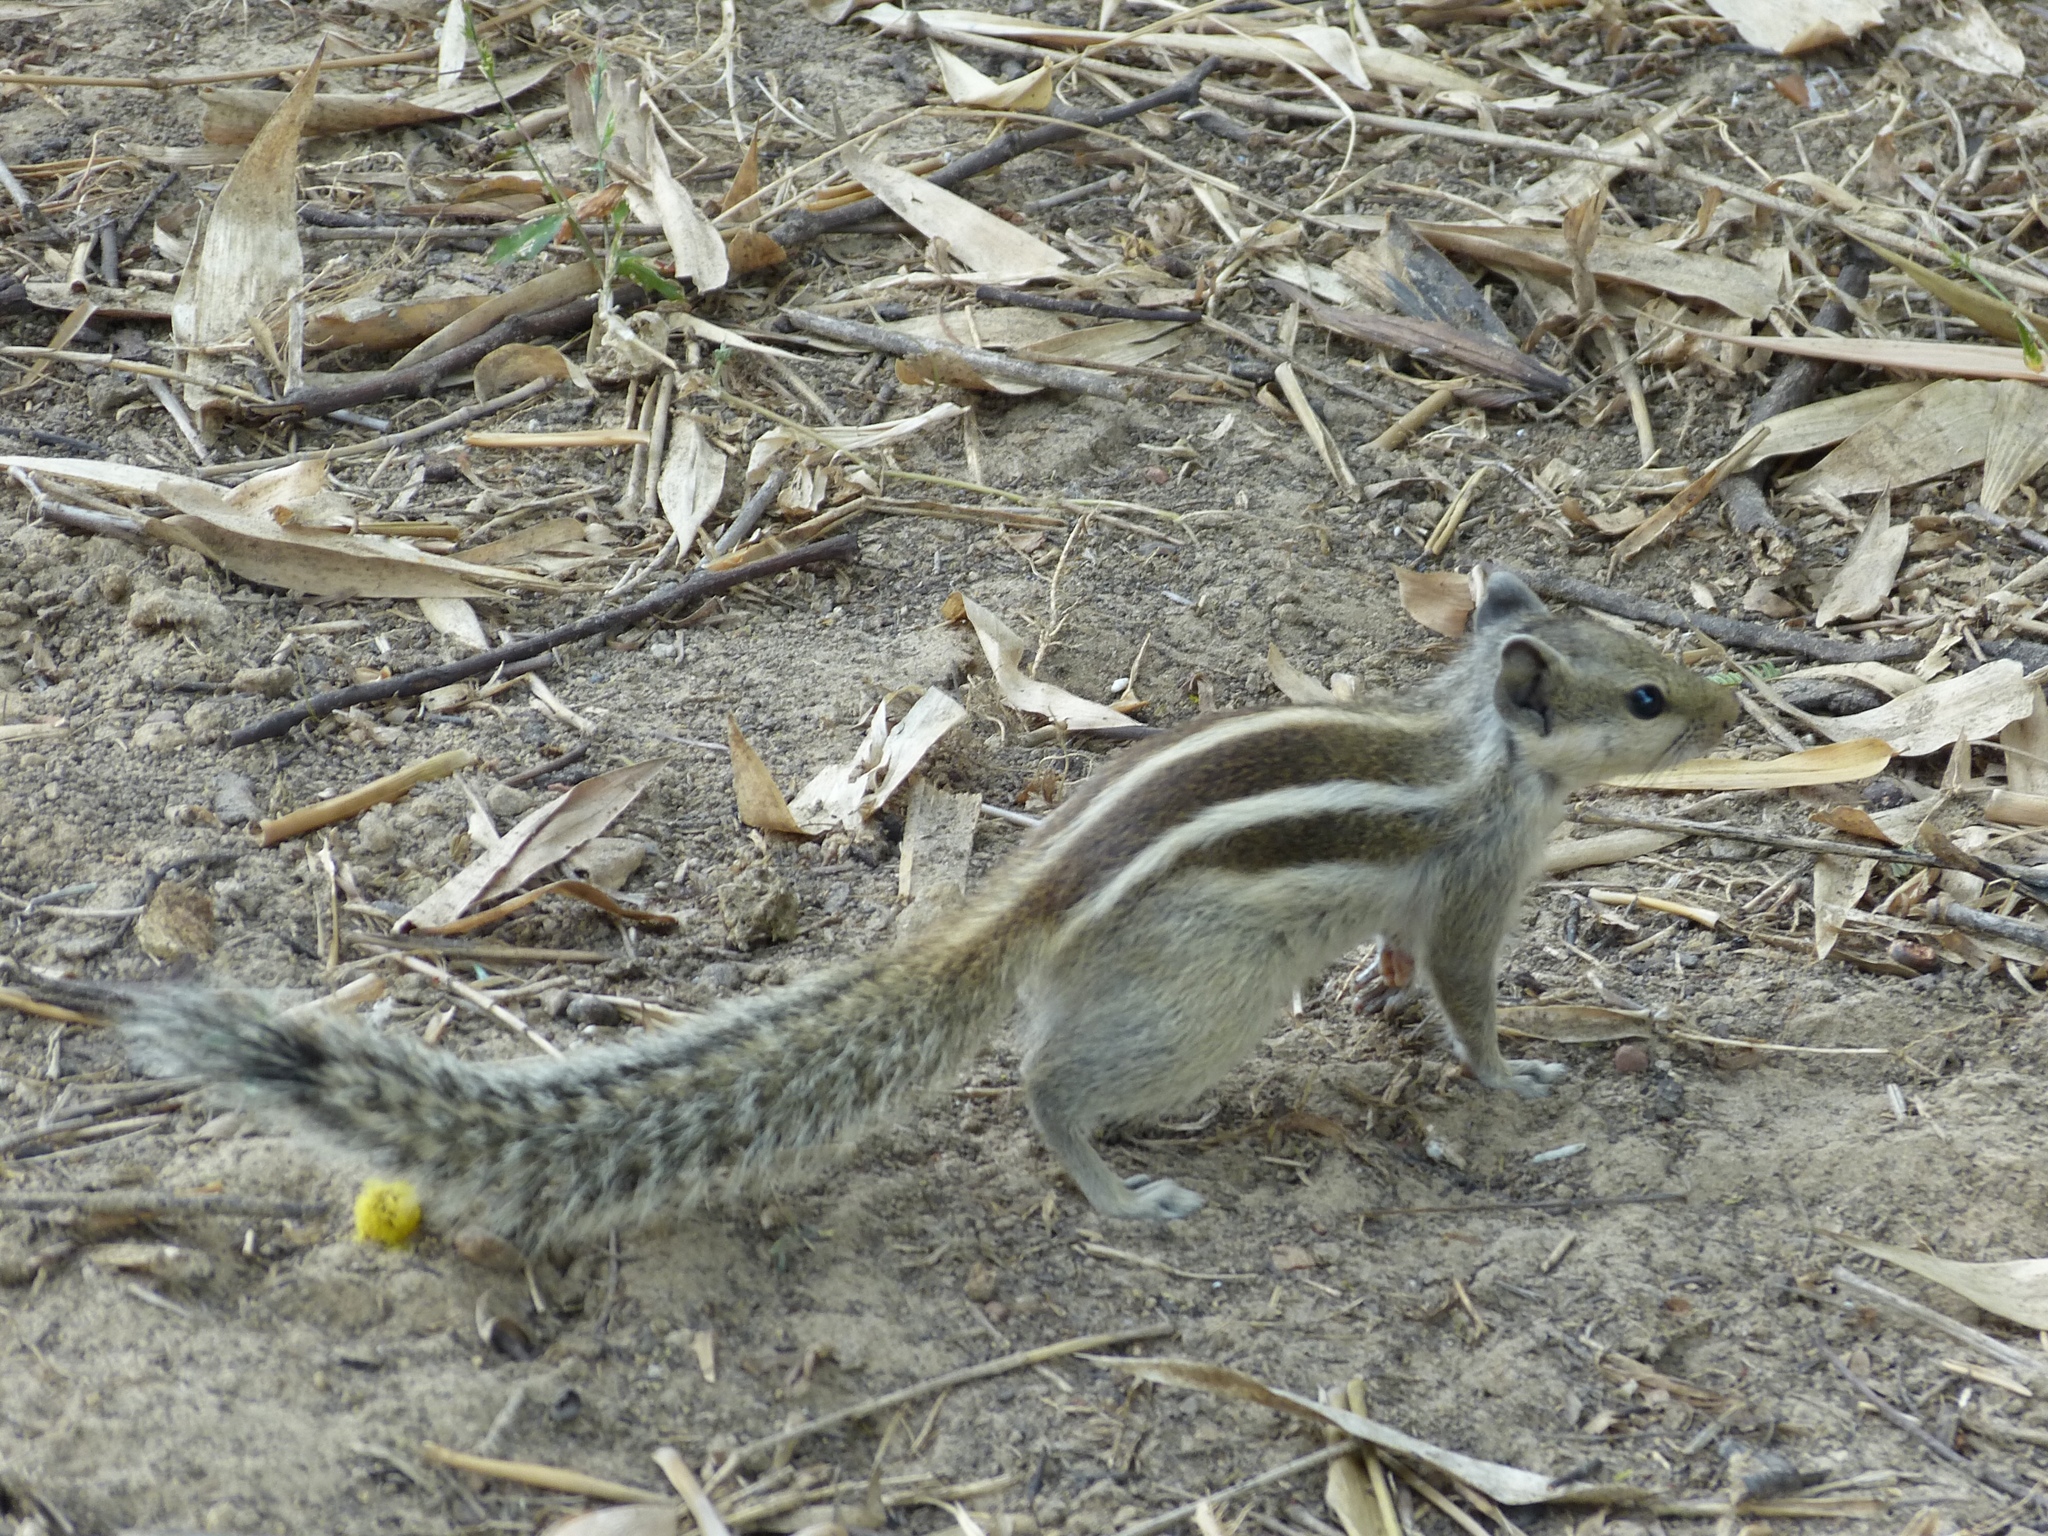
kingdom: Animalia
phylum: Chordata
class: Mammalia
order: Rodentia
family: Sciuridae
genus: Funambulus
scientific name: Funambulus pennantii
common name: Northern palm squirrel
